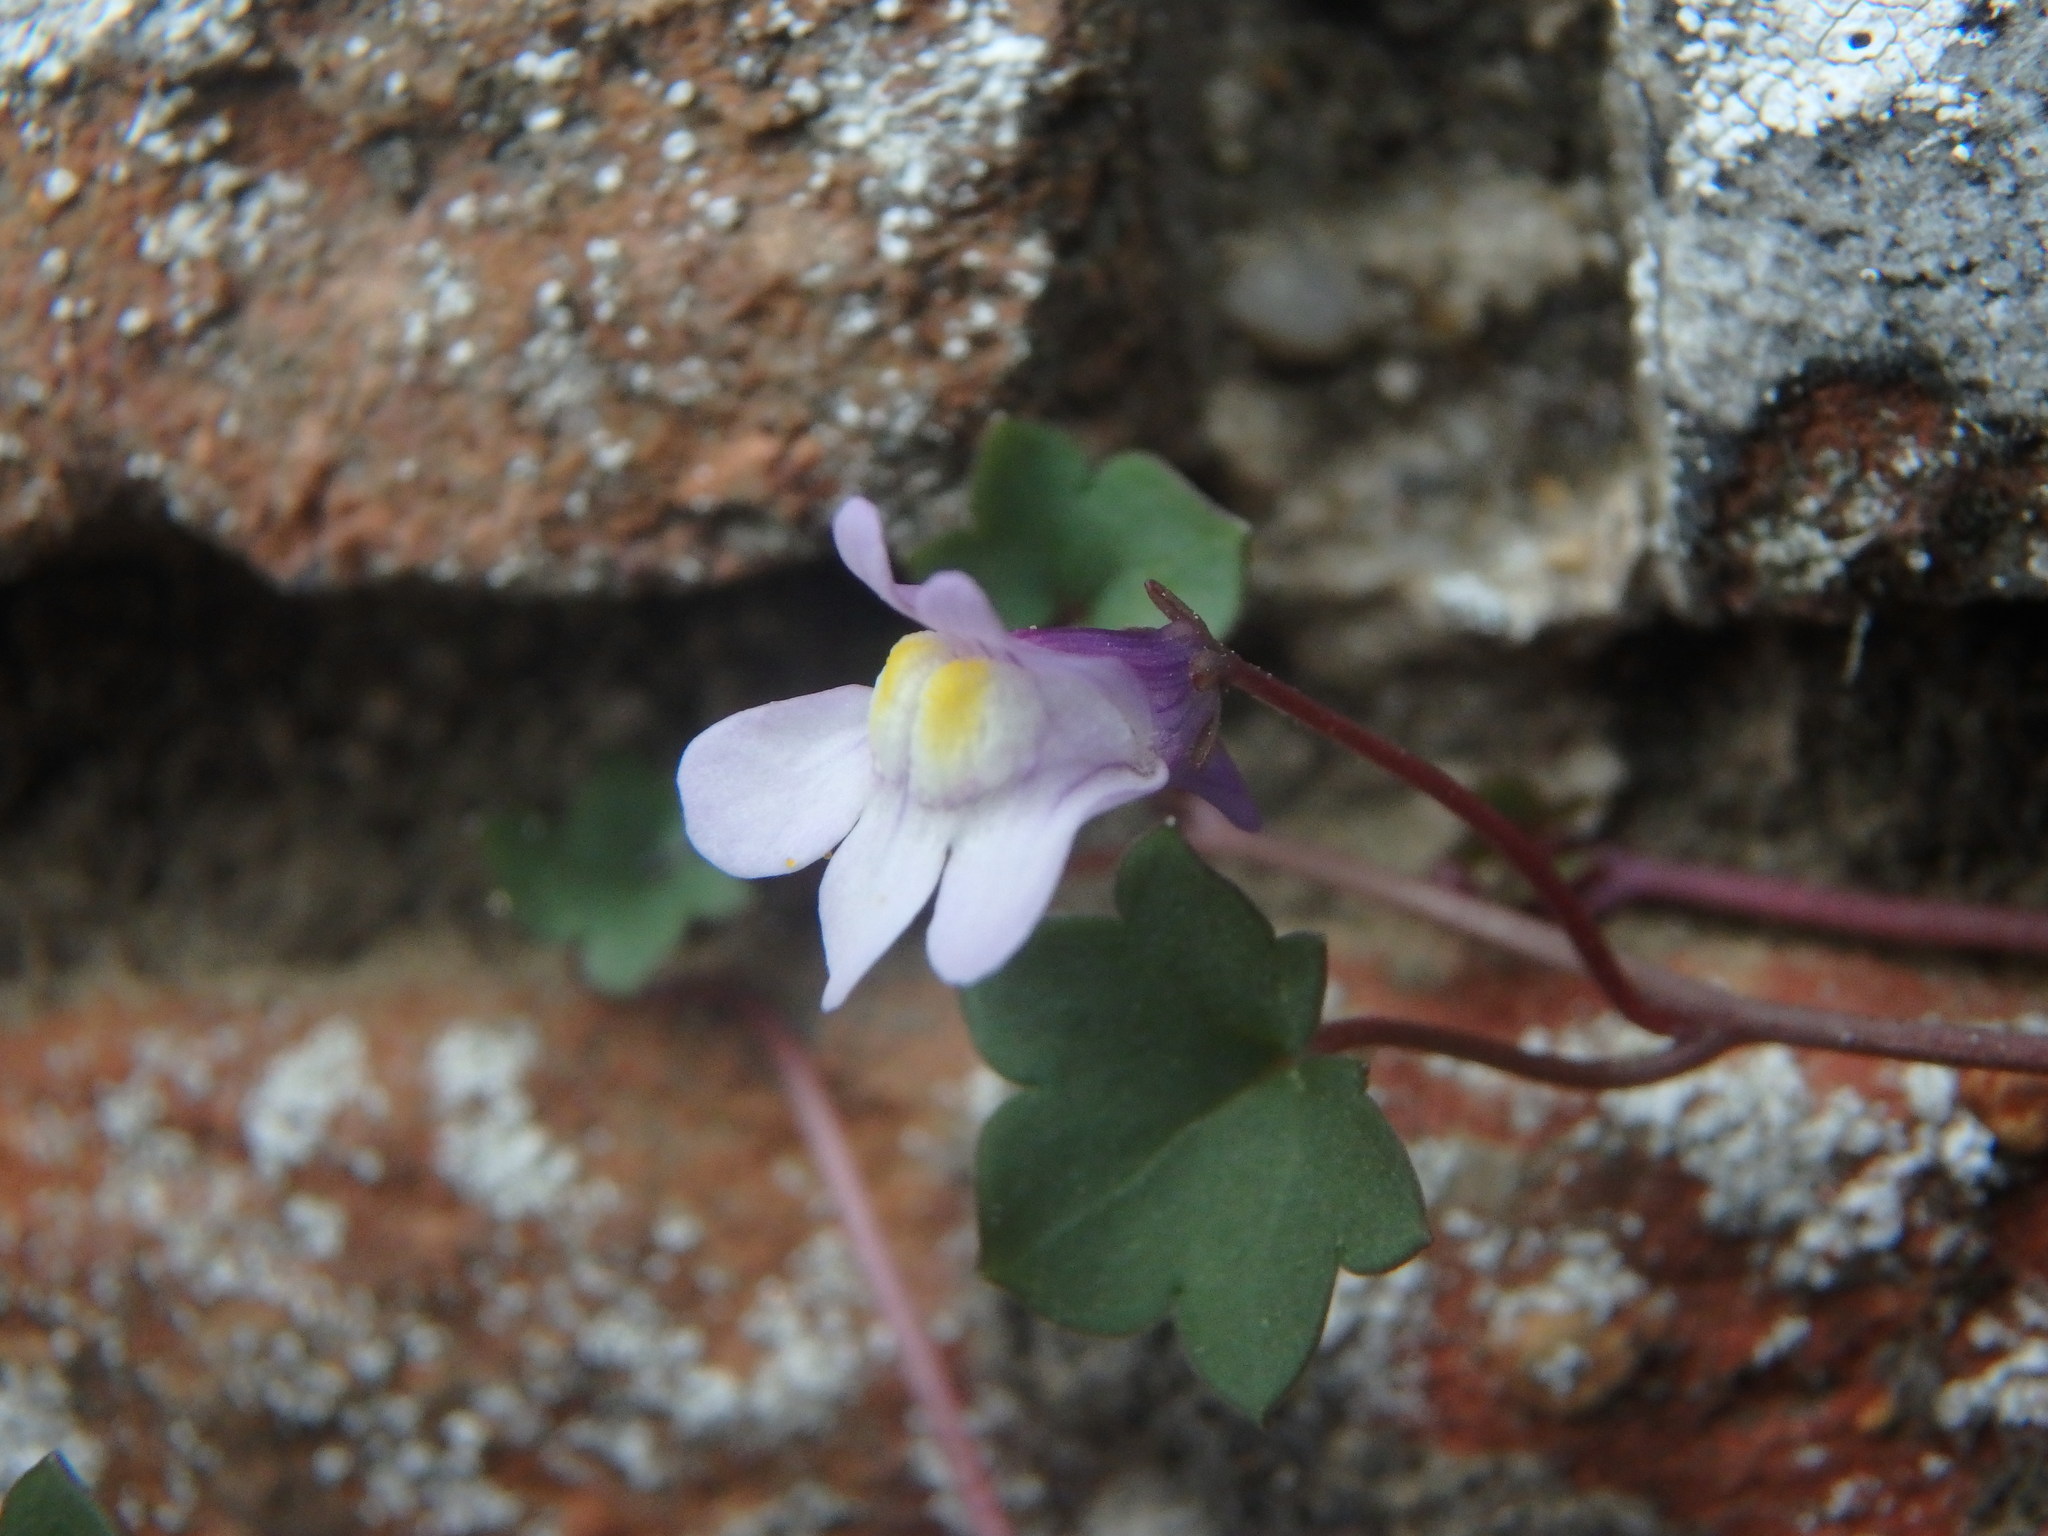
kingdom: Plantae
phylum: Tracheophyta
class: Magnoliopsida
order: Lamiales
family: Plantaginaceae
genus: Cymbalaria
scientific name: Cymbalaria muralis
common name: Ivy-leaved toadflax
